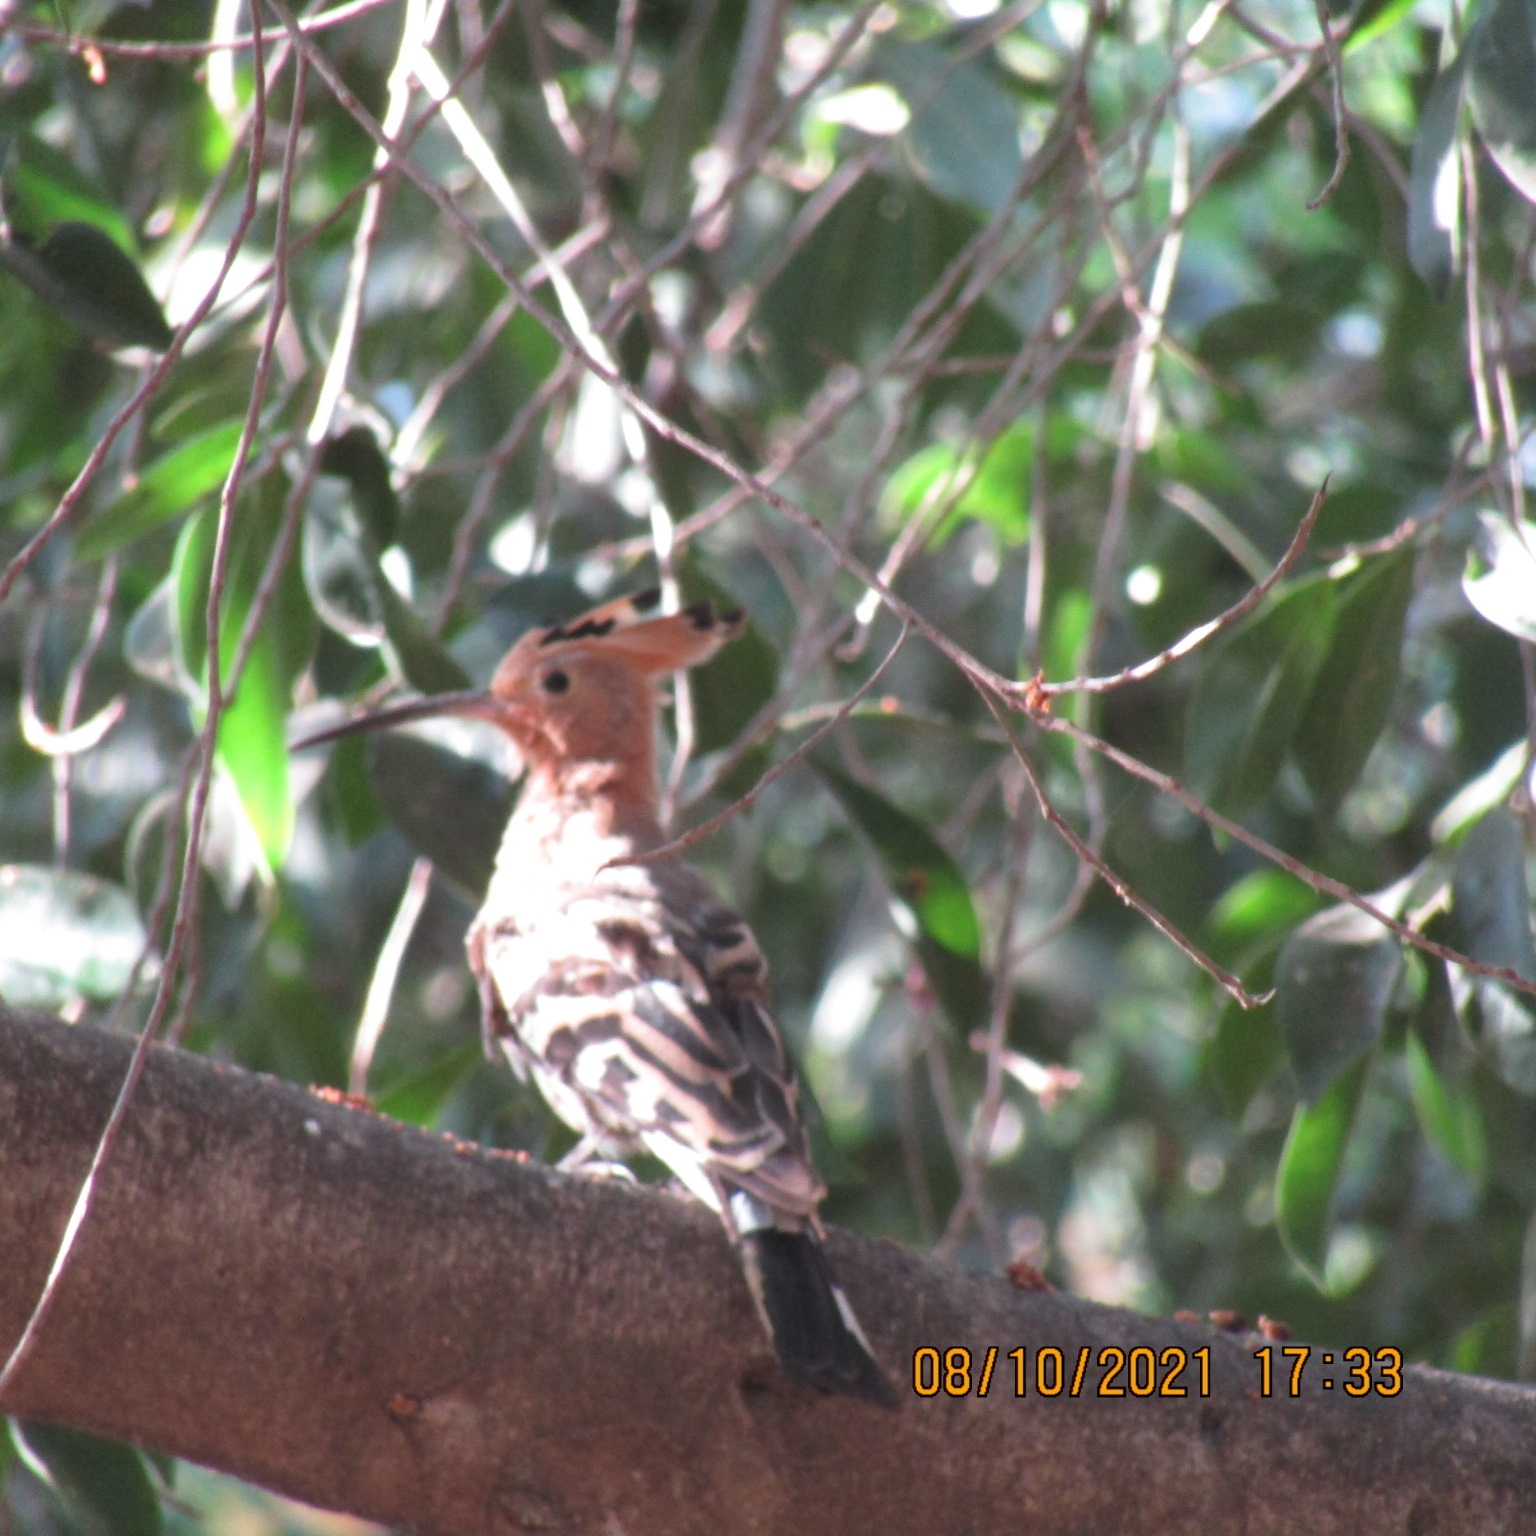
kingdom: Animalia
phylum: Chordata
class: Aves
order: Bucerotiformes
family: Upupidae
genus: Upupa
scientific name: Upupa epops
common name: Eurasian hoopoe
